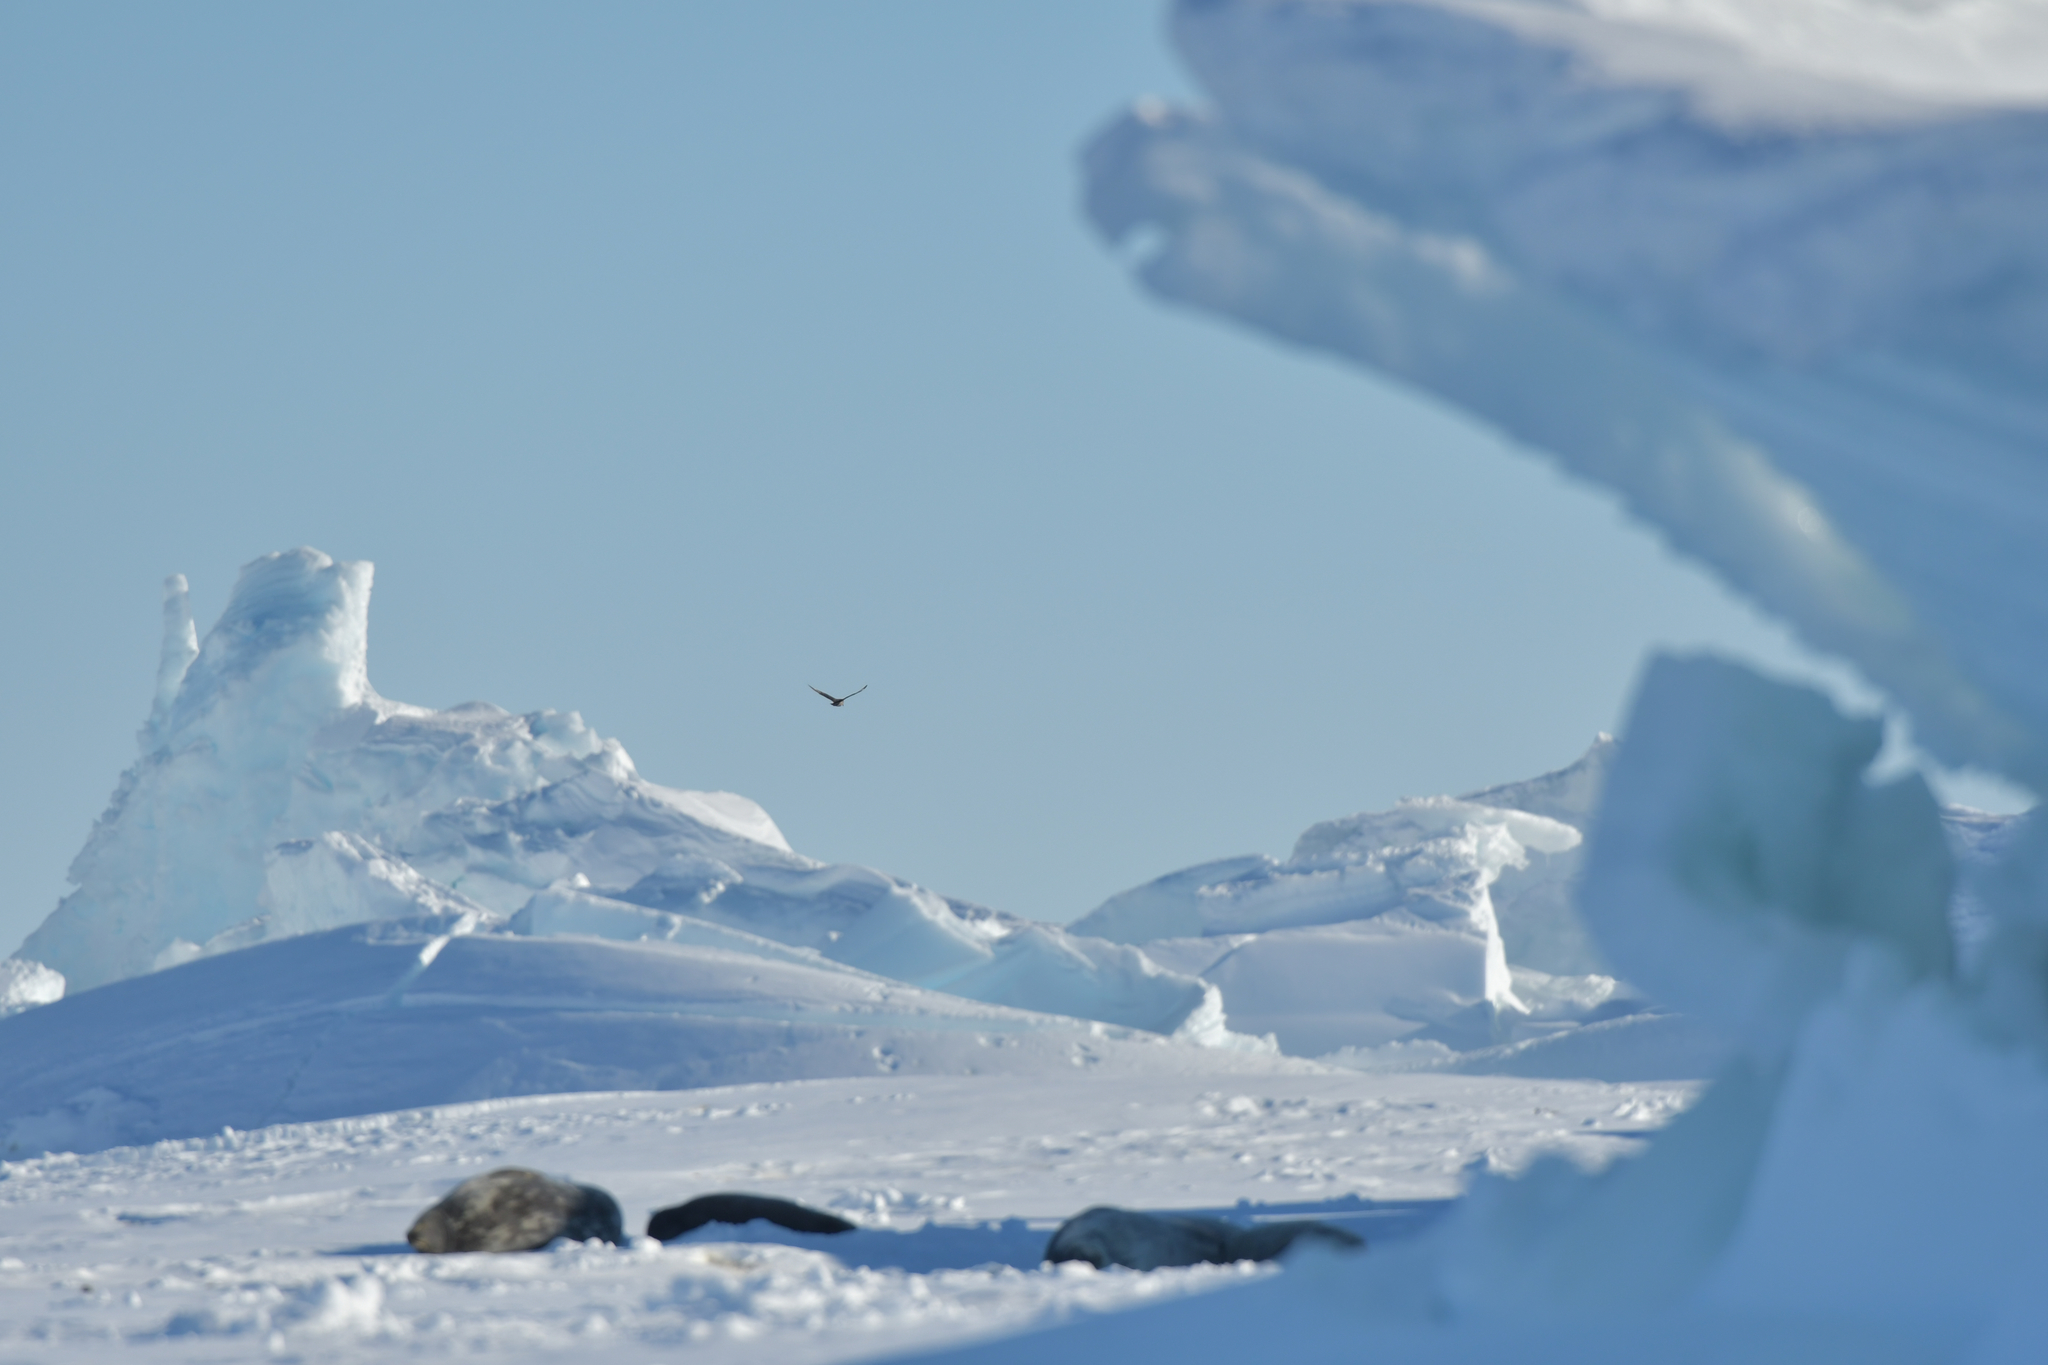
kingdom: Animalia
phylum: Chordata
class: Aves
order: Charadriiformes
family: Stercorariidae
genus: Stercorarius
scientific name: Stercorarius maccormicki
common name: South polar skua
